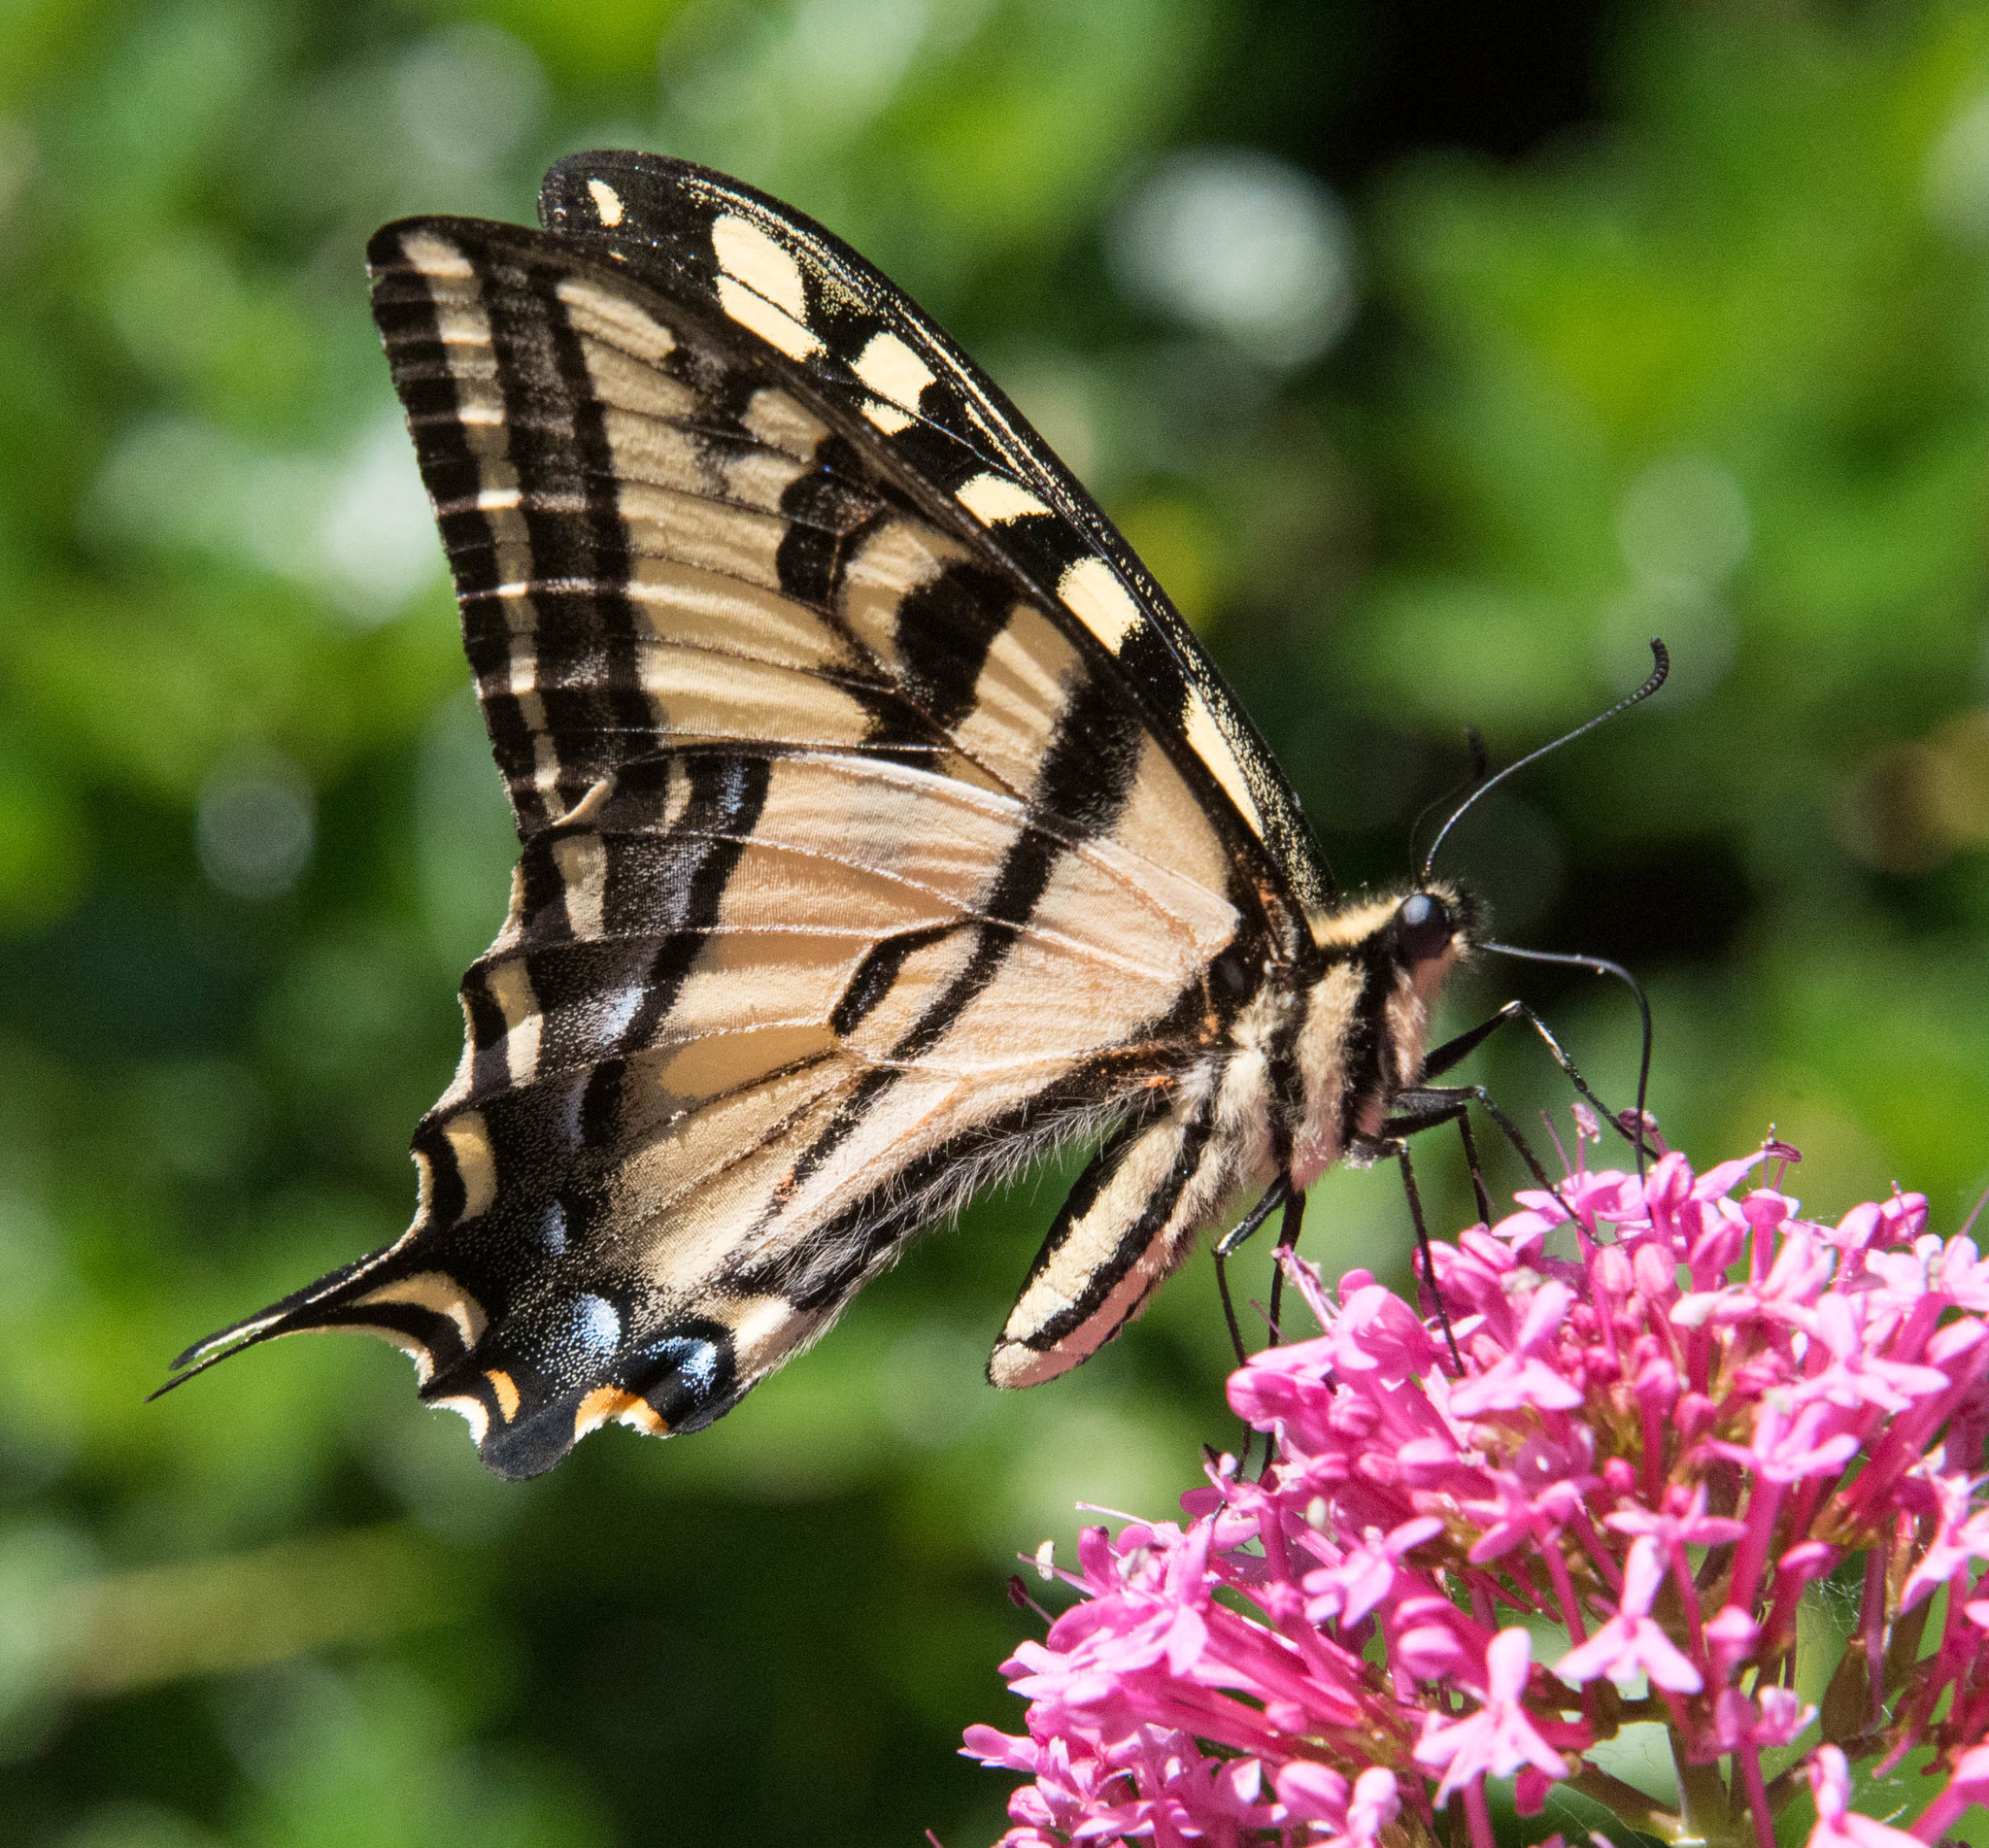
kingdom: Animalia
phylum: Arthropoda
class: Insecta
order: Lepidoptera
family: Papilionidae
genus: Papilio
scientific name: Papilio rutulus
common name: Western tiger swallowtail
